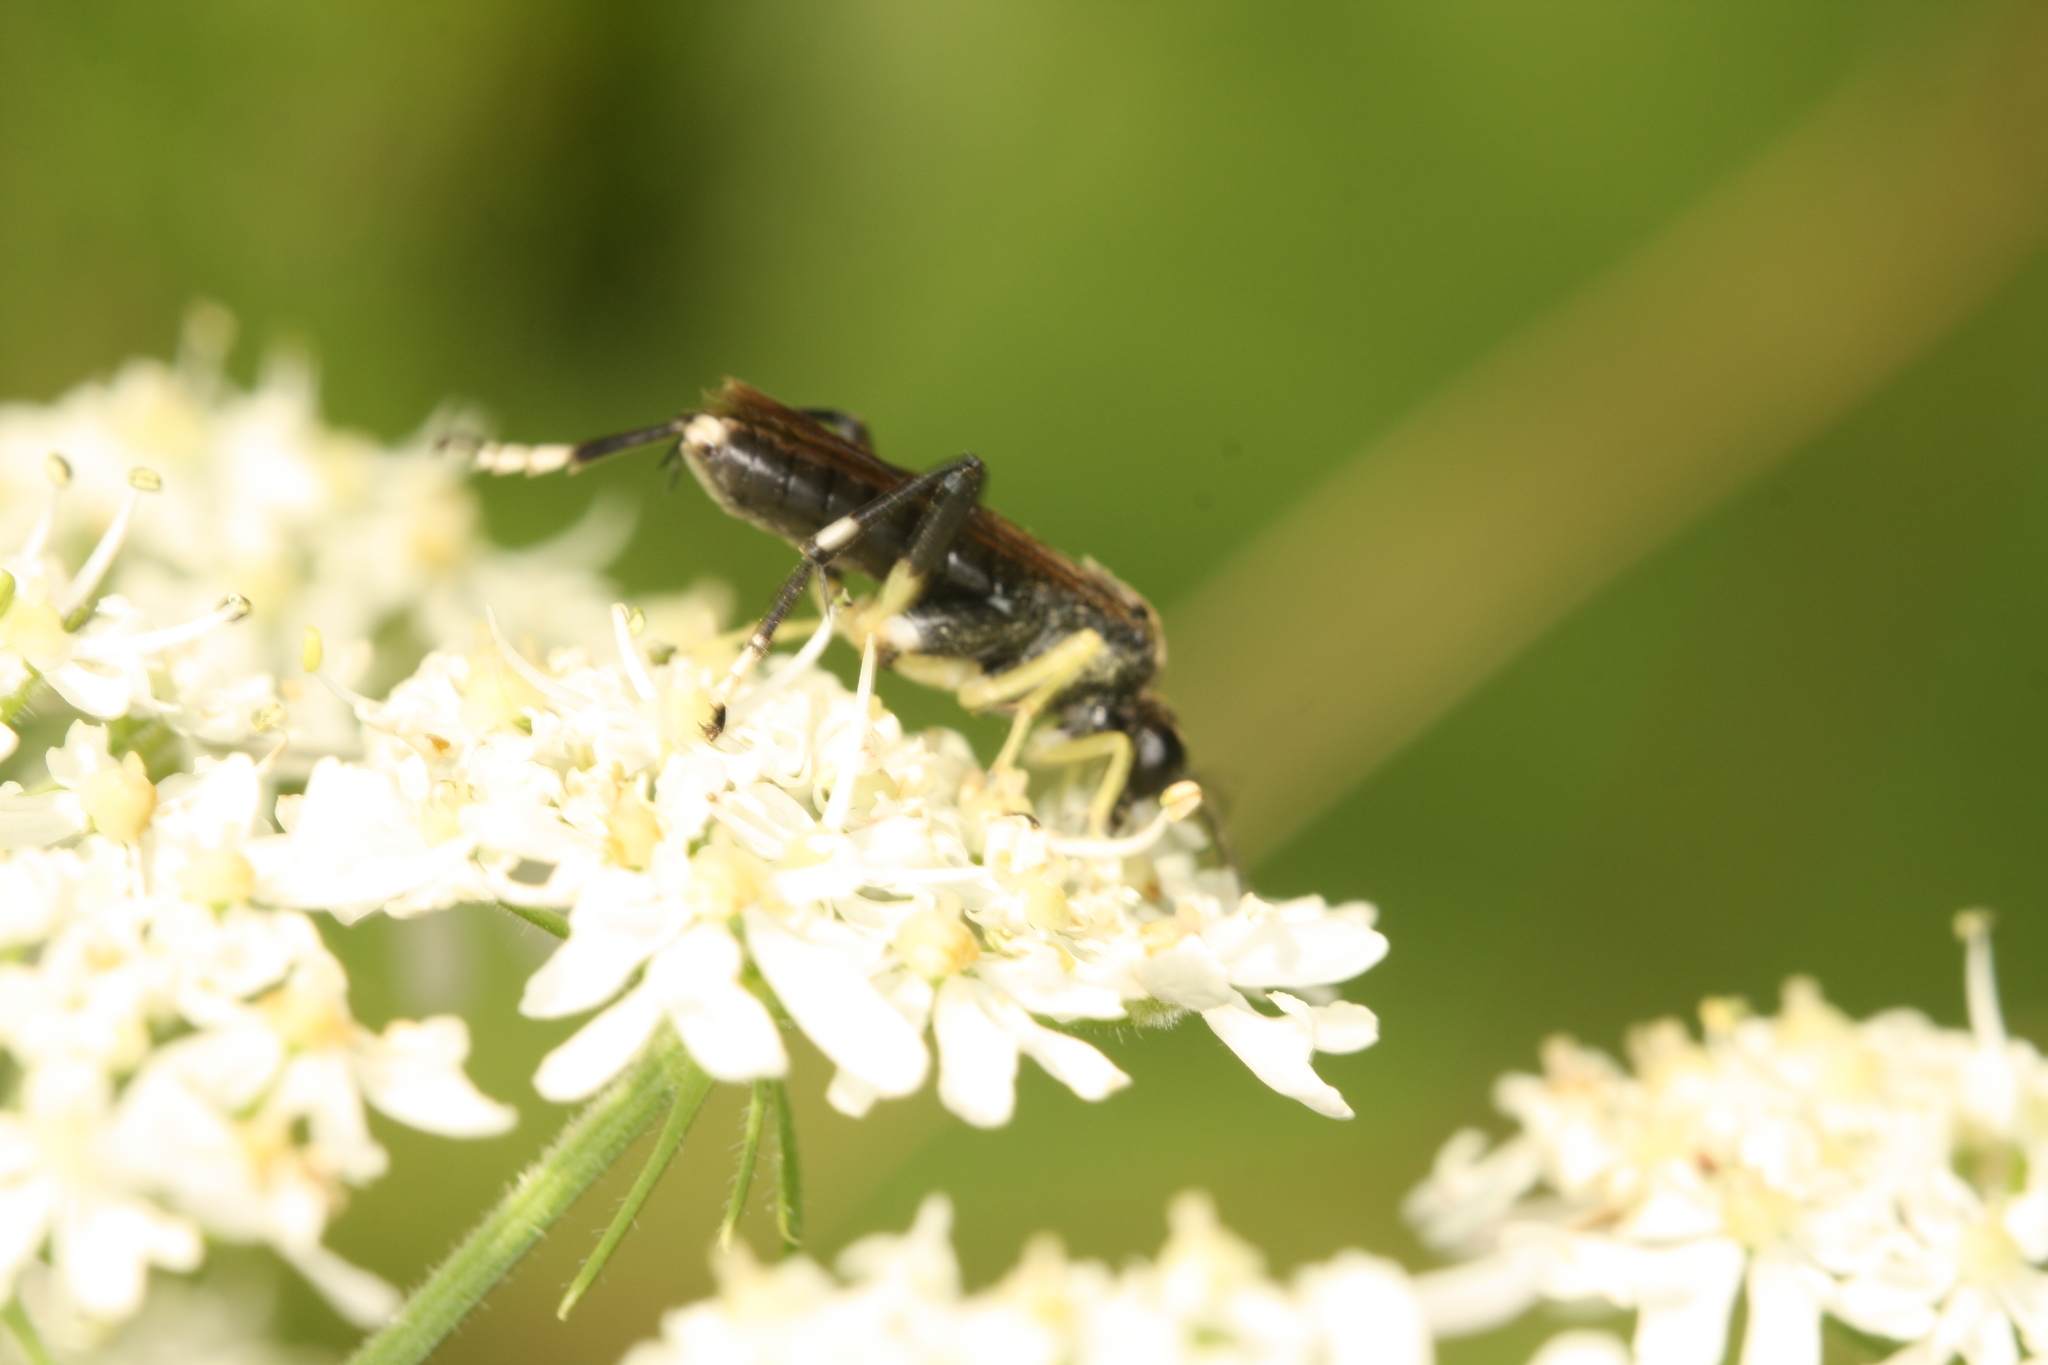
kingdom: Animalia
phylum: Arthropoda
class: Insecta
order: Hymenoptera
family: Tenthredinidae
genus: Macrophya
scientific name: Macrophya montana
